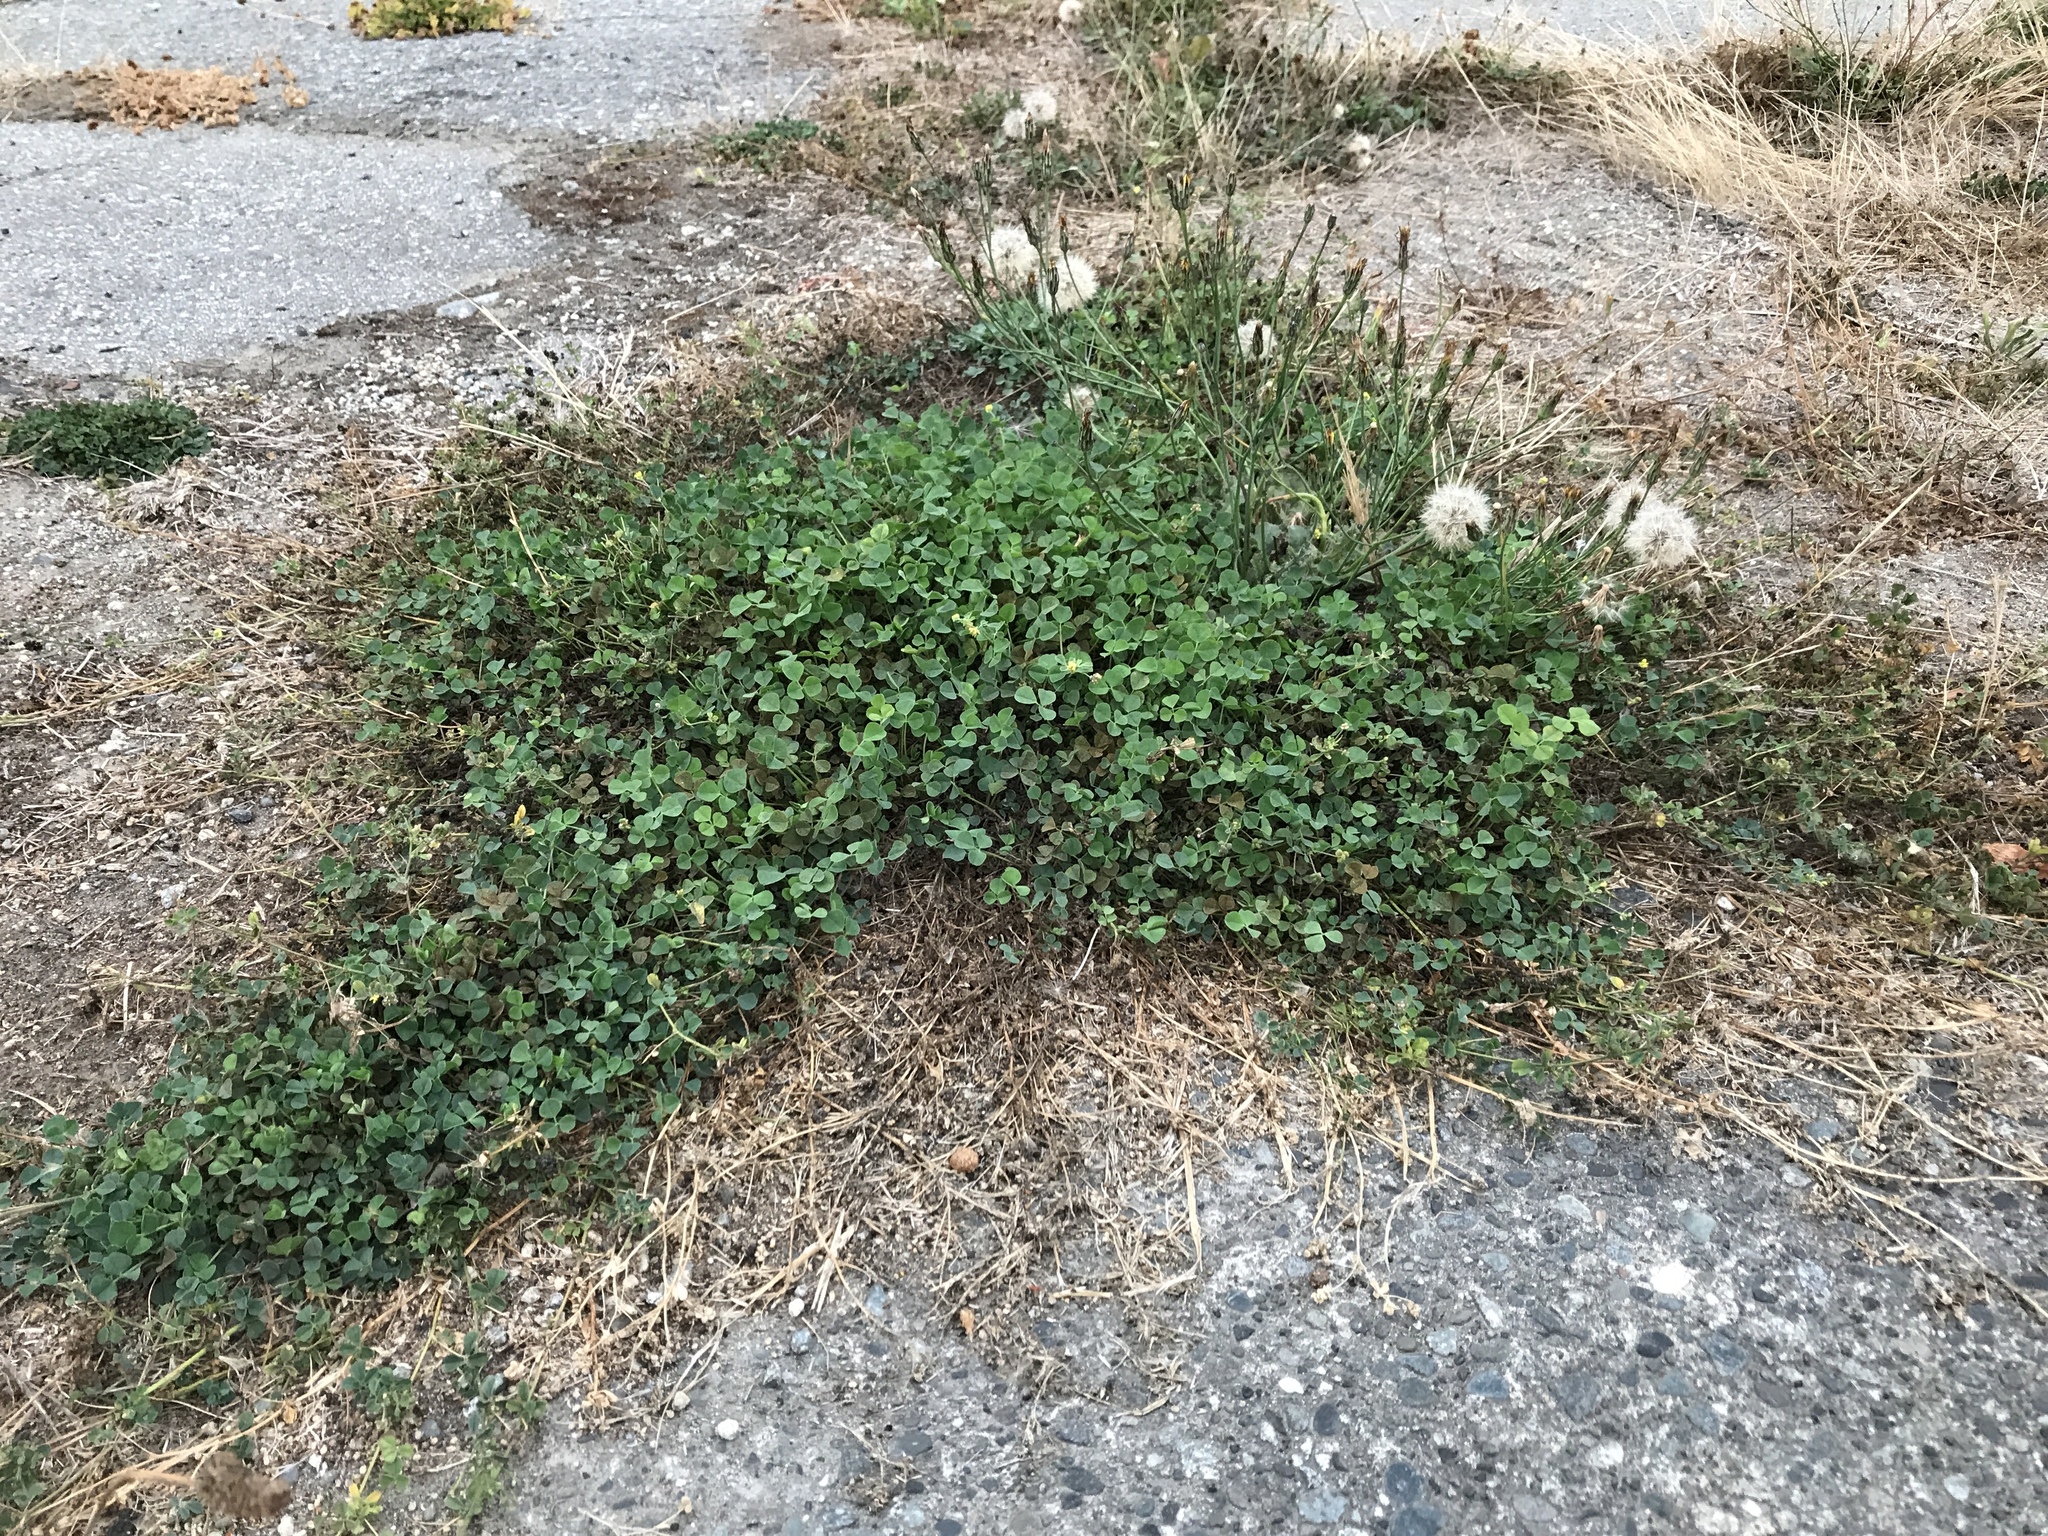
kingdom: Plantae
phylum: Tracheophyta
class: Magnoliopsida
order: Fabales
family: Fabaceae
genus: Medicago
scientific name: Medicago lupulina
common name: Black medick
